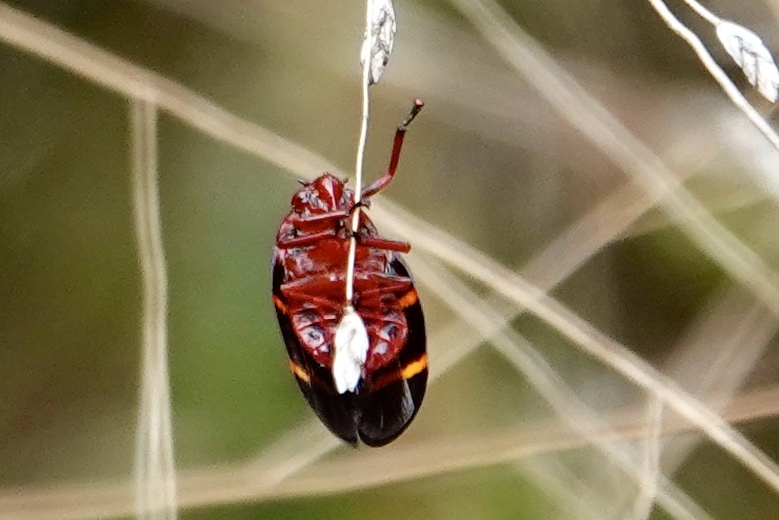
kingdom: Animalia
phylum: Arthropoda
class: Insecta
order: Hemiptera
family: Cercopidae
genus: Prosapia
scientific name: Prosapia bicincta
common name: Twolined spittlebug
